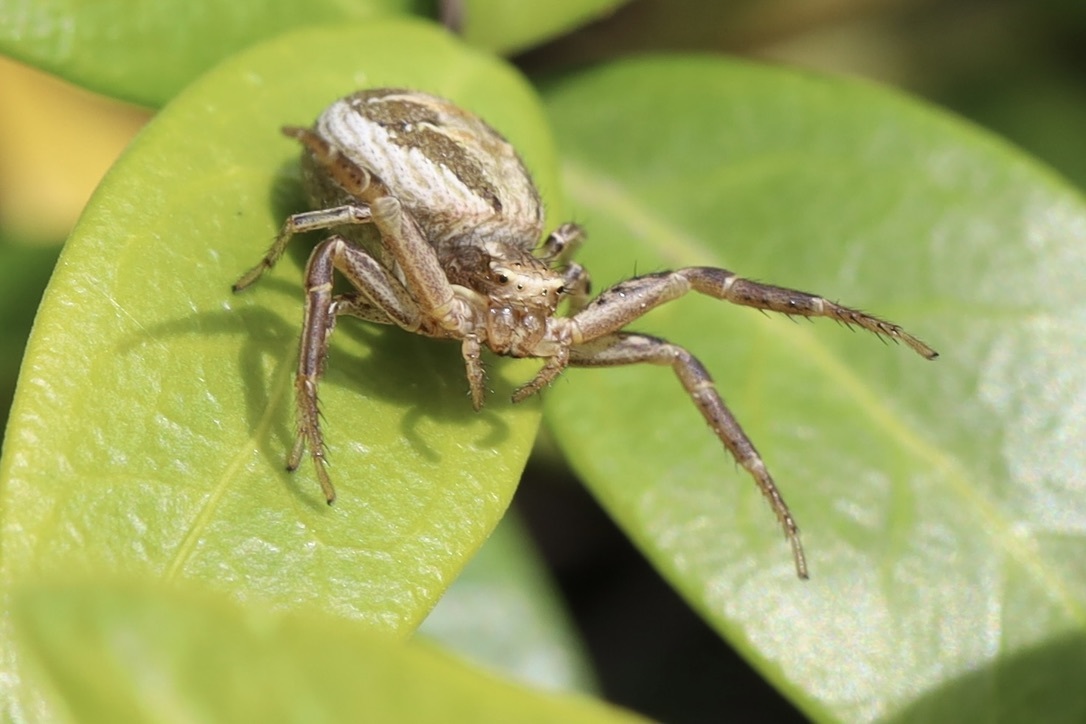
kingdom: Animalia
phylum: Arthropoda
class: Arachnida
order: Araneae
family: Thomisidae
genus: Xysticus
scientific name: Xysticus cristatus
